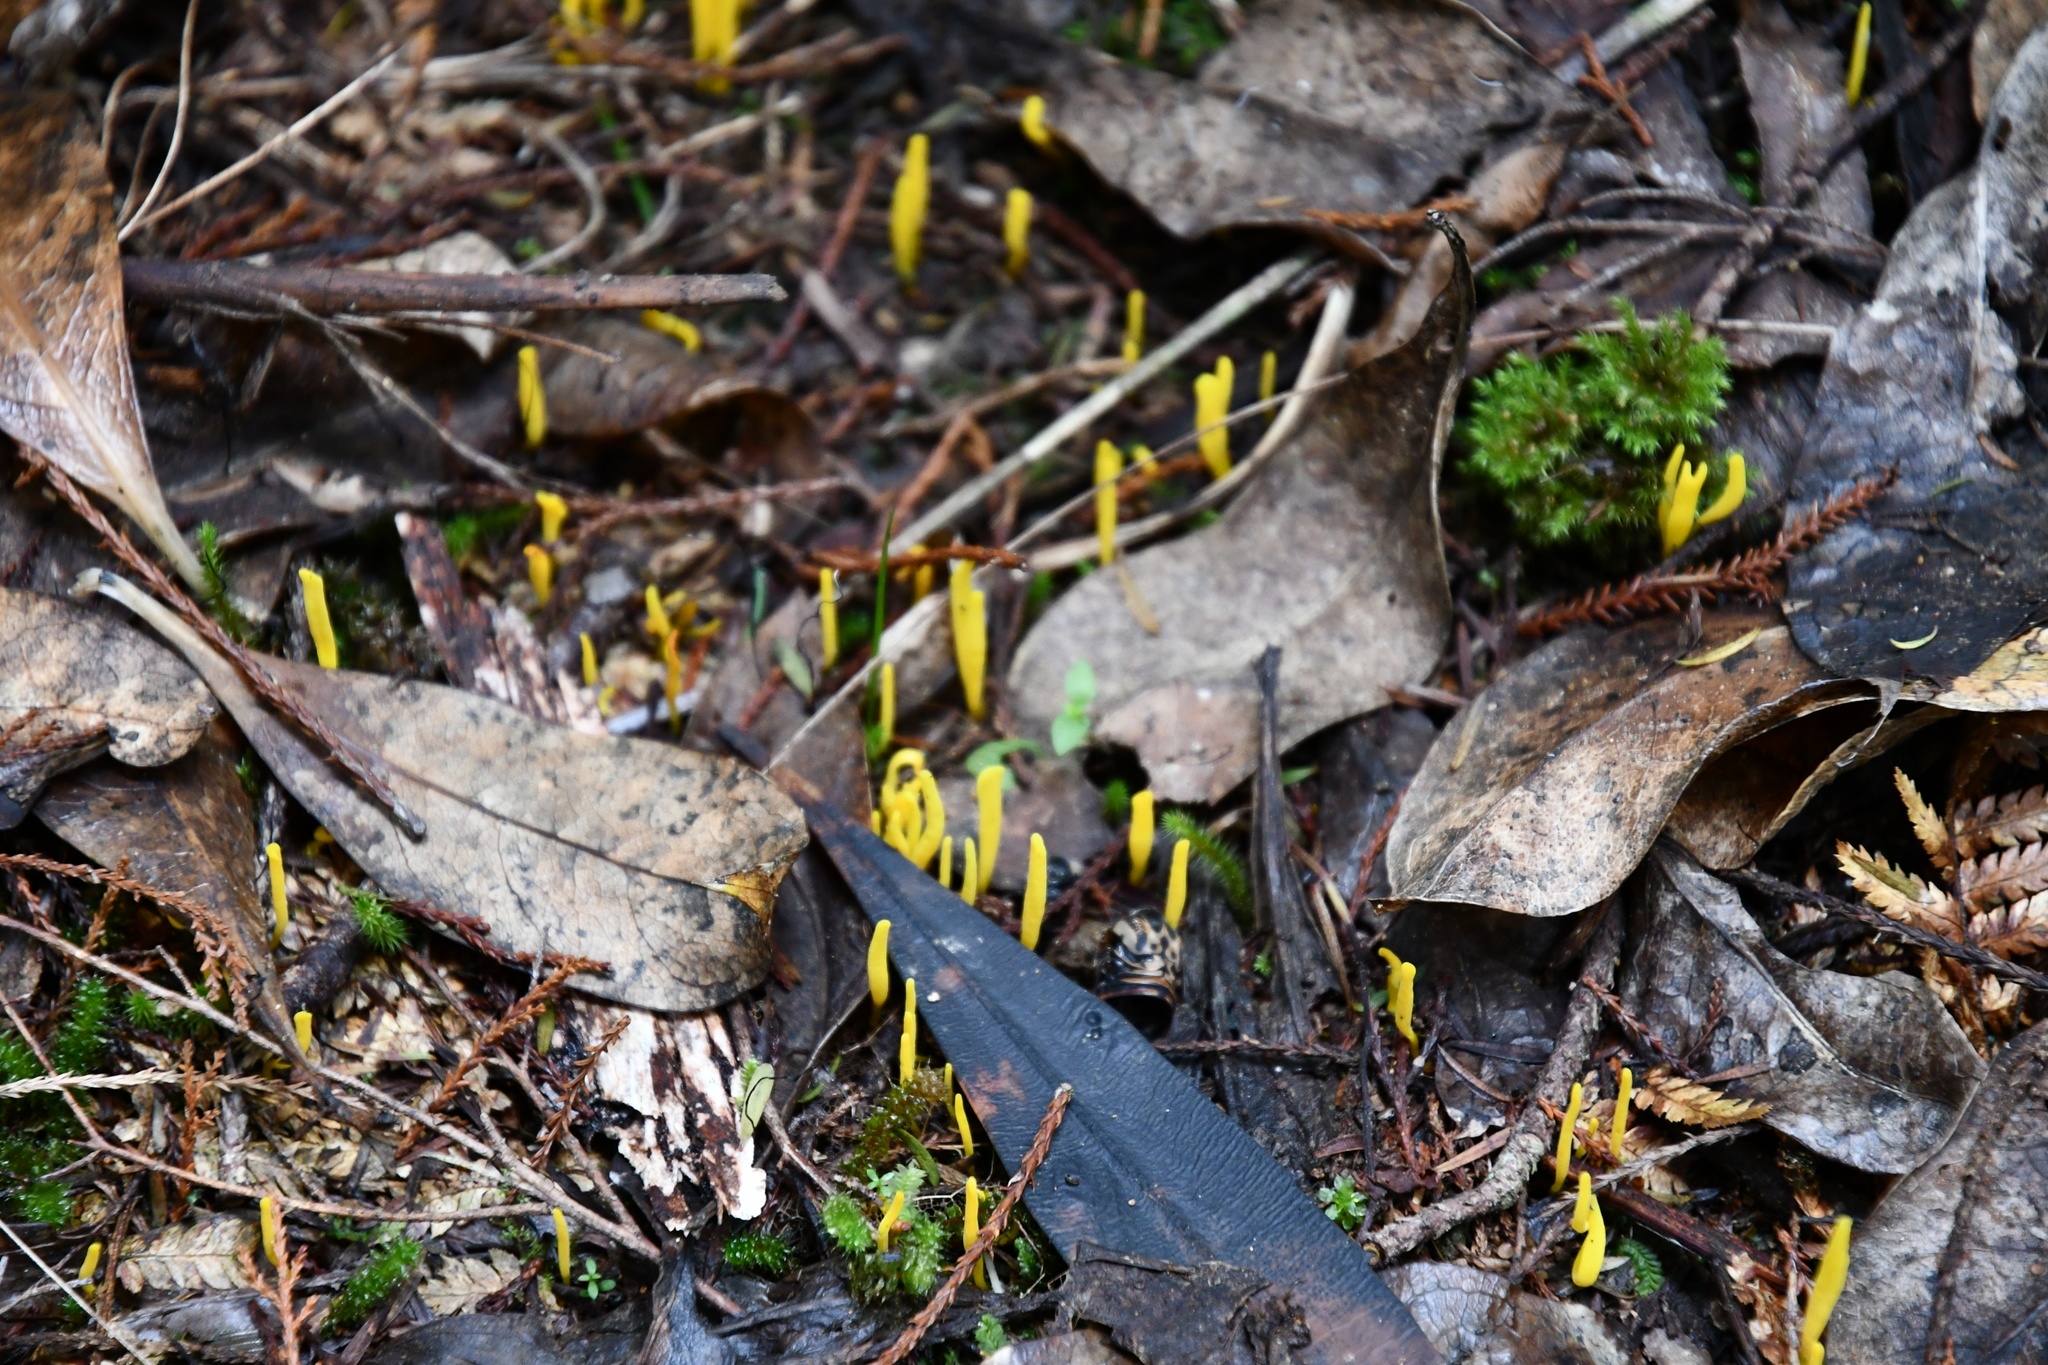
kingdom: Fungi
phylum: Basidiomycota
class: Agaricomycetes
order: Agaricales
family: Clavariaceae
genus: Clavulinopsis
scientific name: Clavulinopsis archeri
